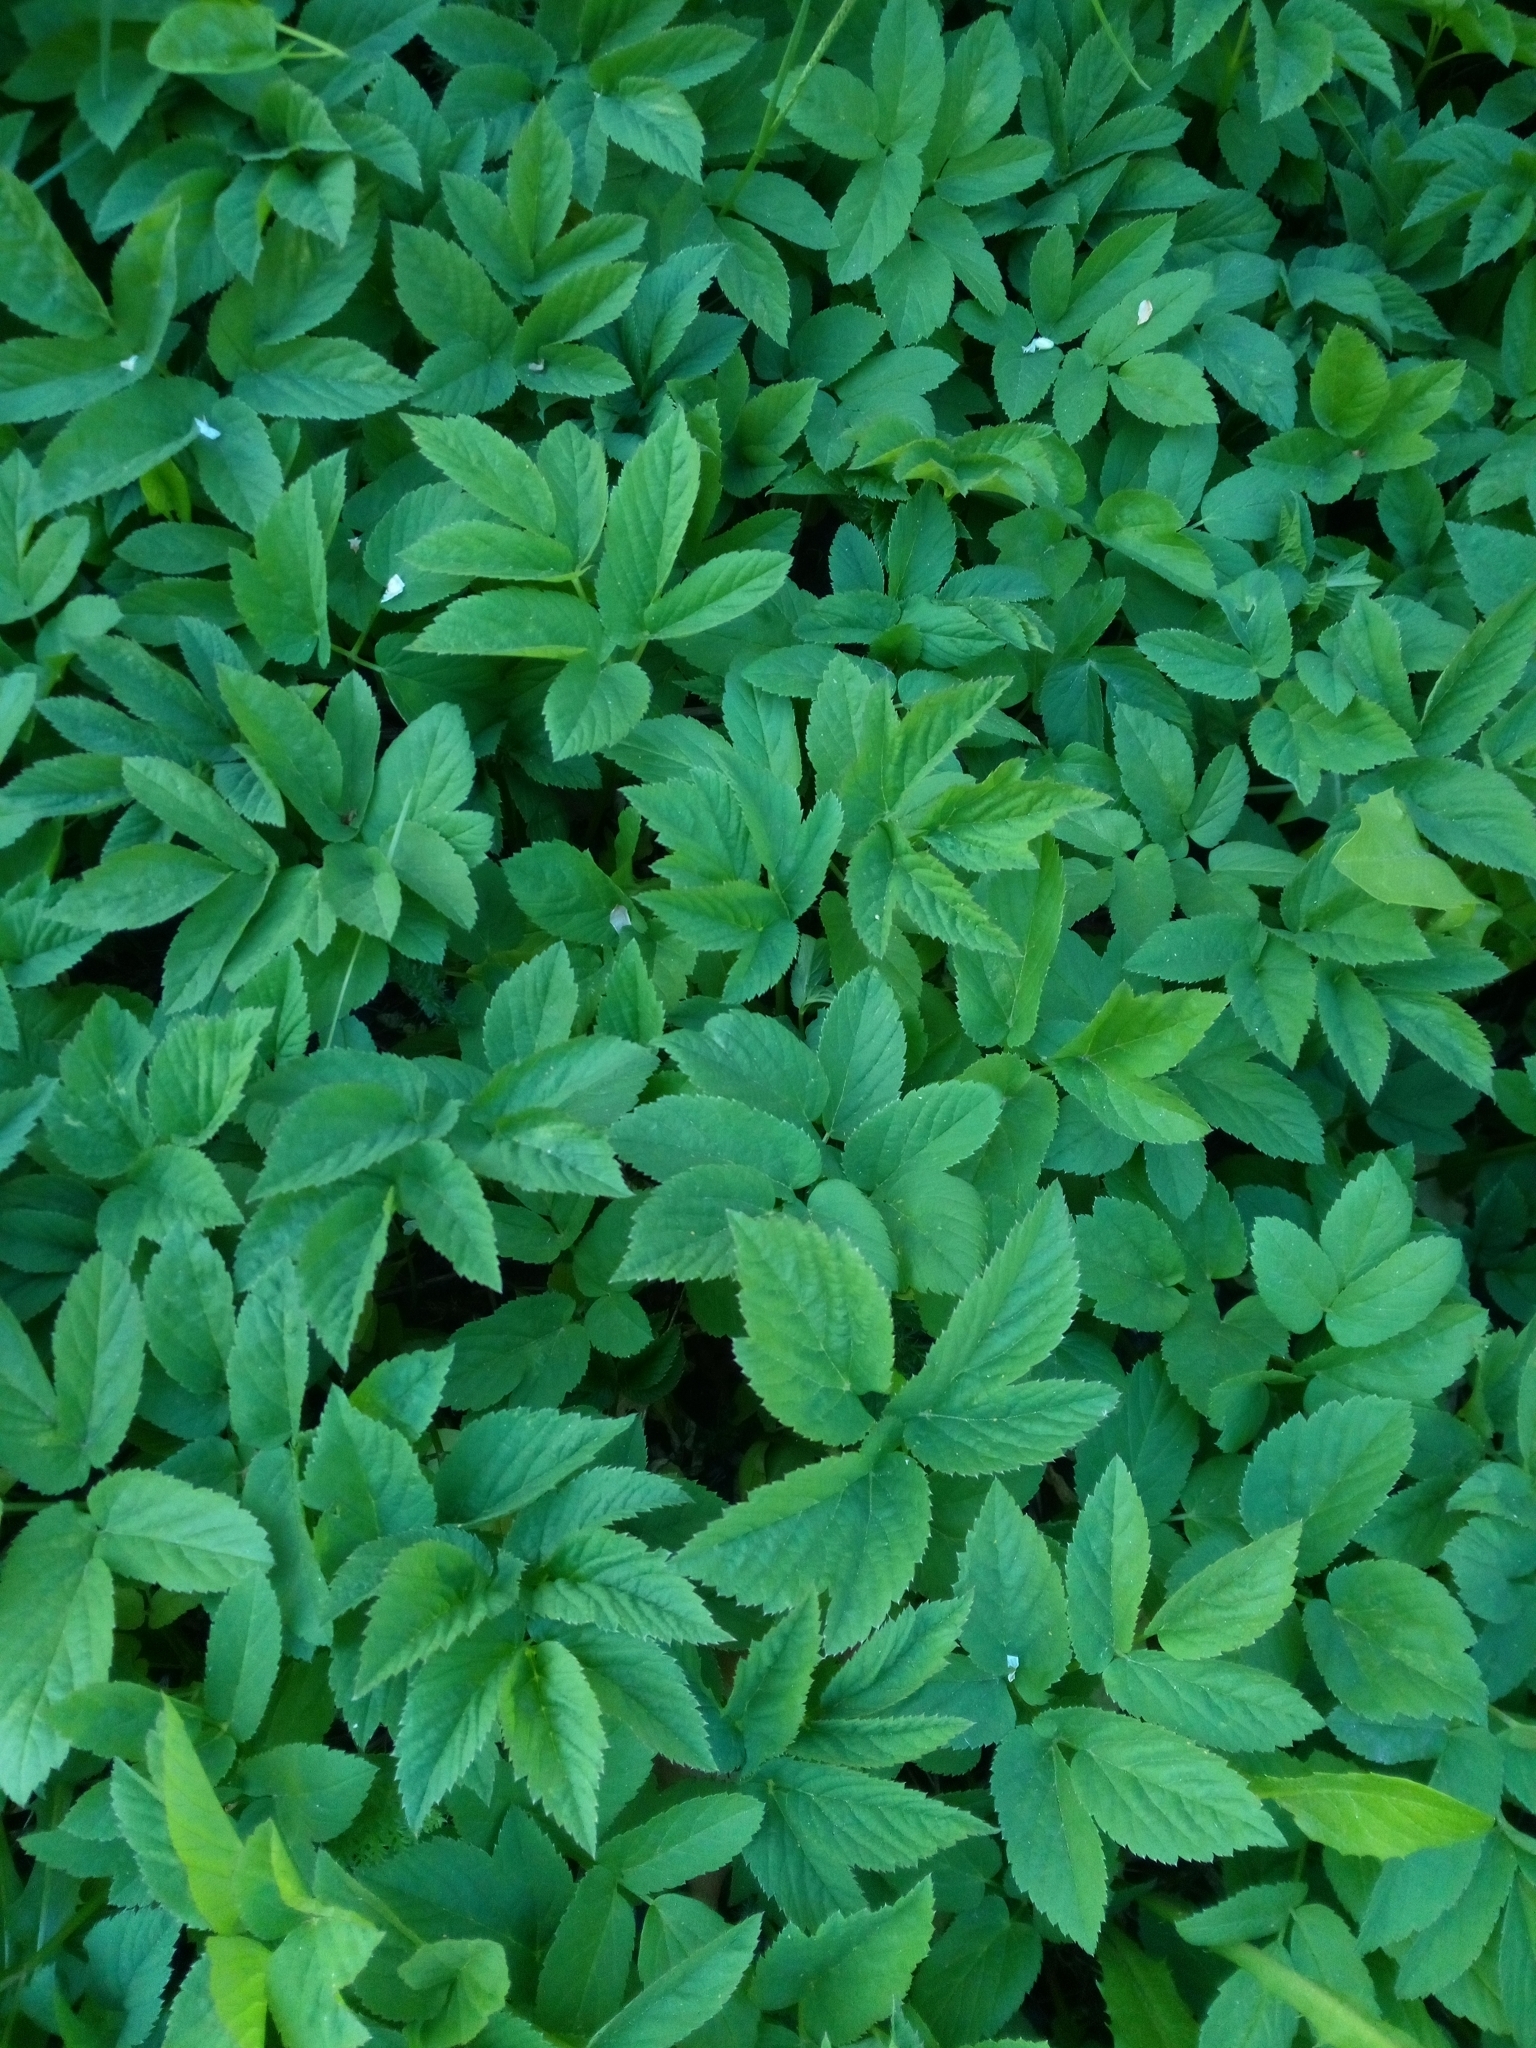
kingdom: Plantae
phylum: Tracheophyta
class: Magnoliopsida
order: Apiales
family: Apiaceae
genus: Aegopodium
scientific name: Aegopodium podagraria
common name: Ground-elder
